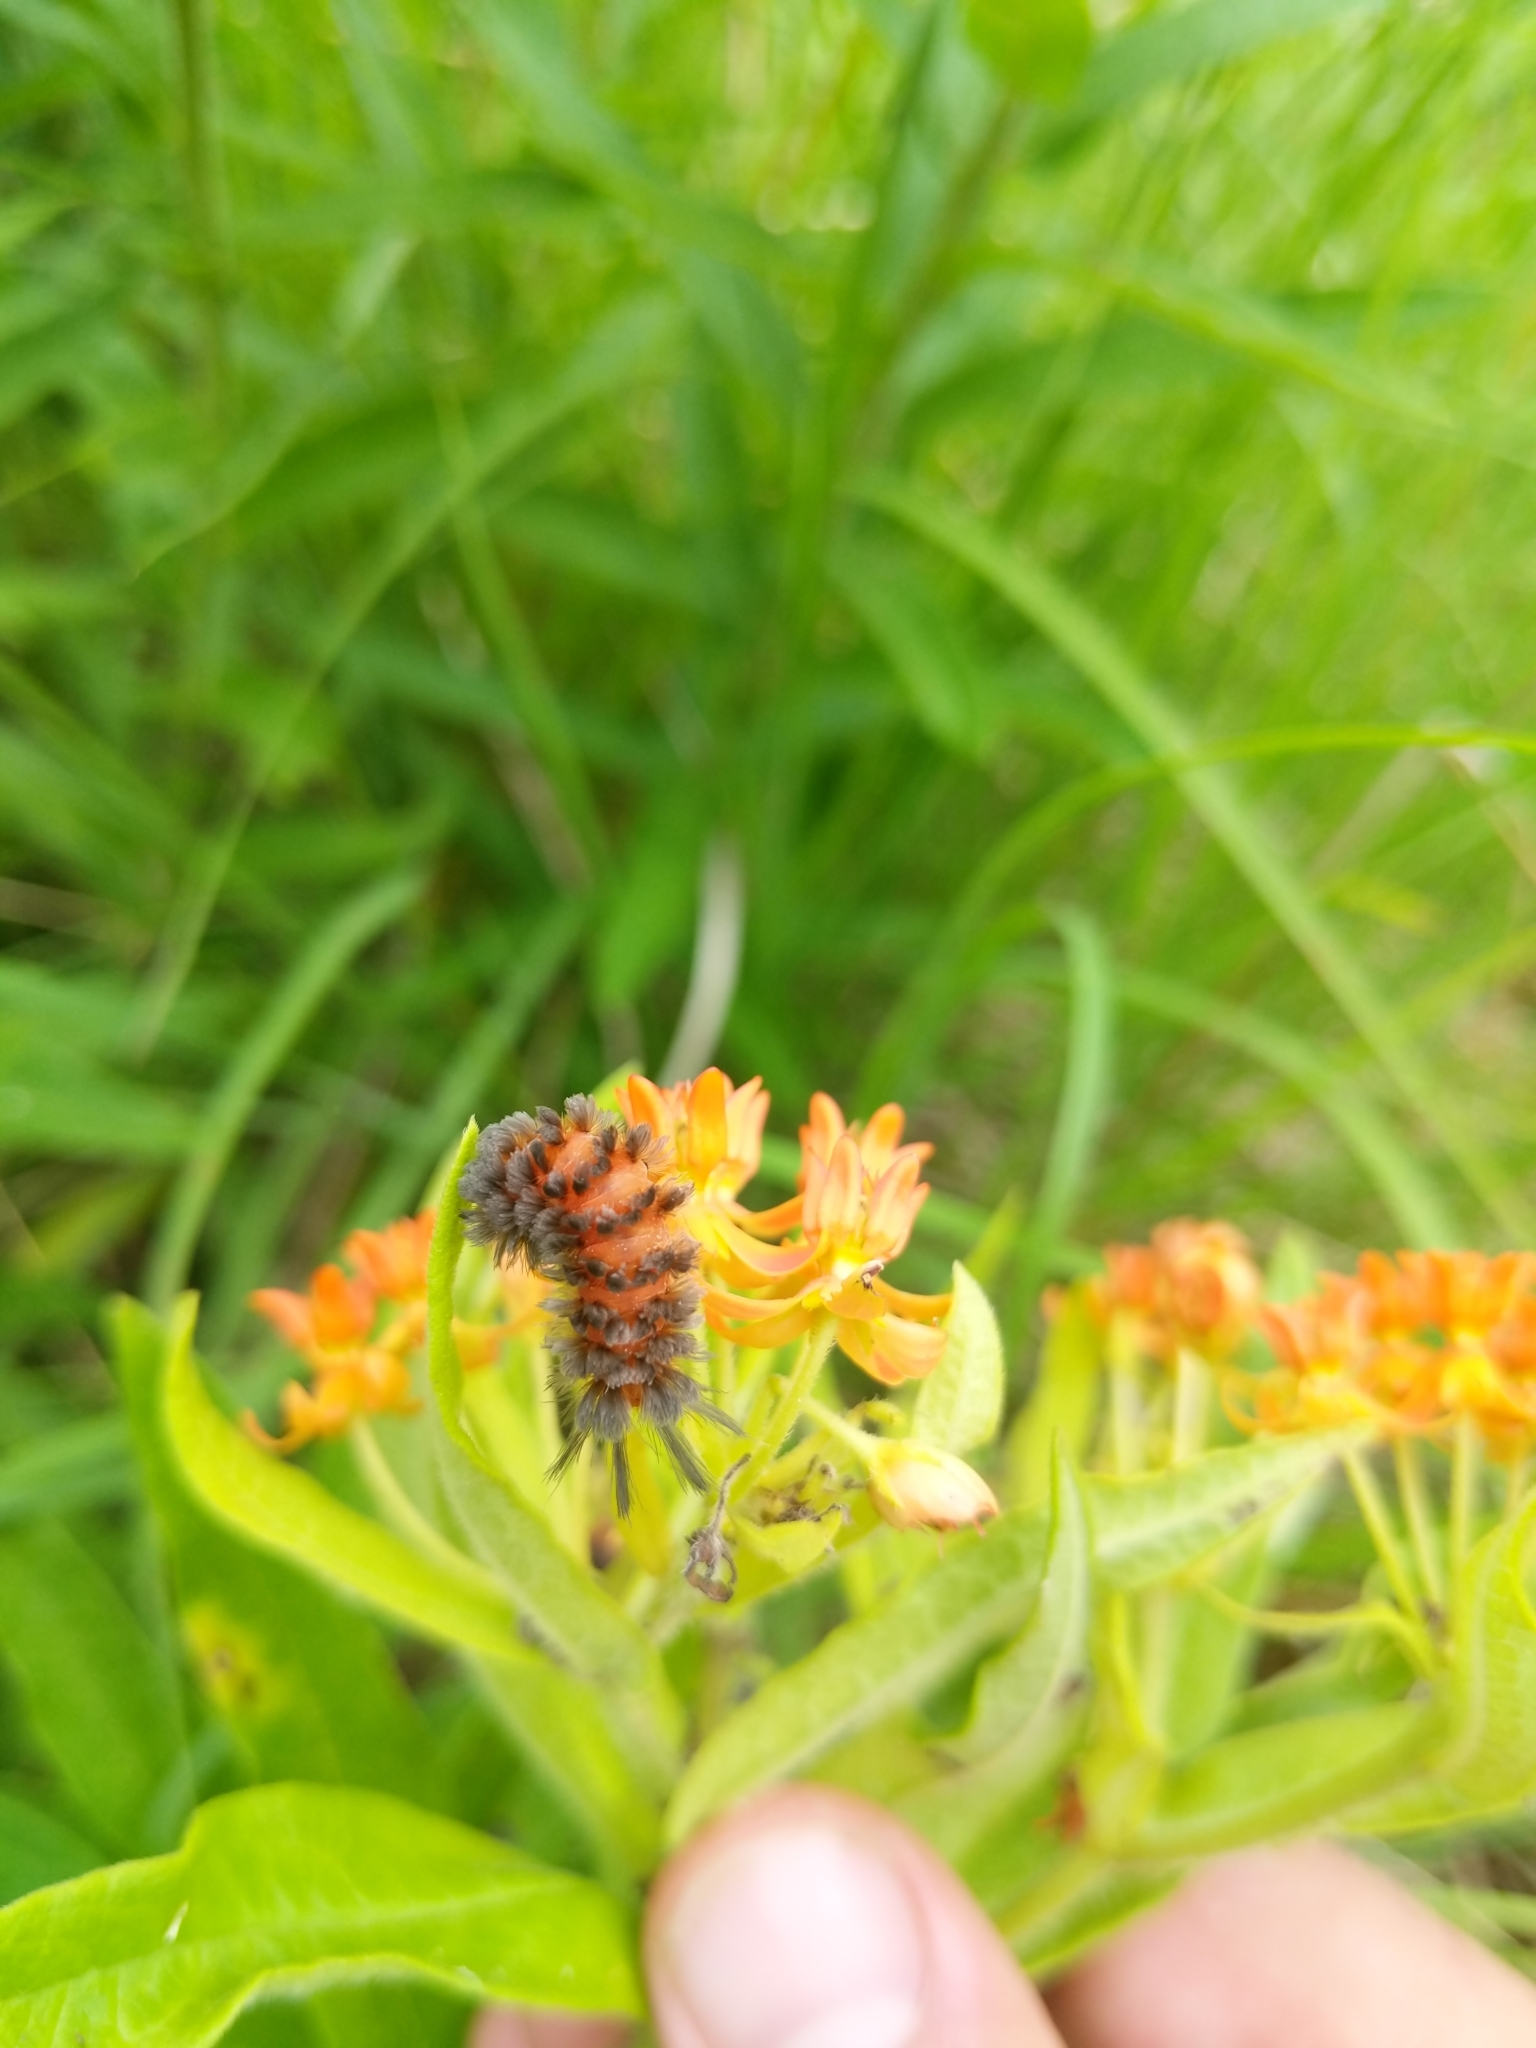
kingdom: Animalia
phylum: Arthropoda
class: Insecta
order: Lepidoptera
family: Erebidae
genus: Cycnia
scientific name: Cycnia collaris
